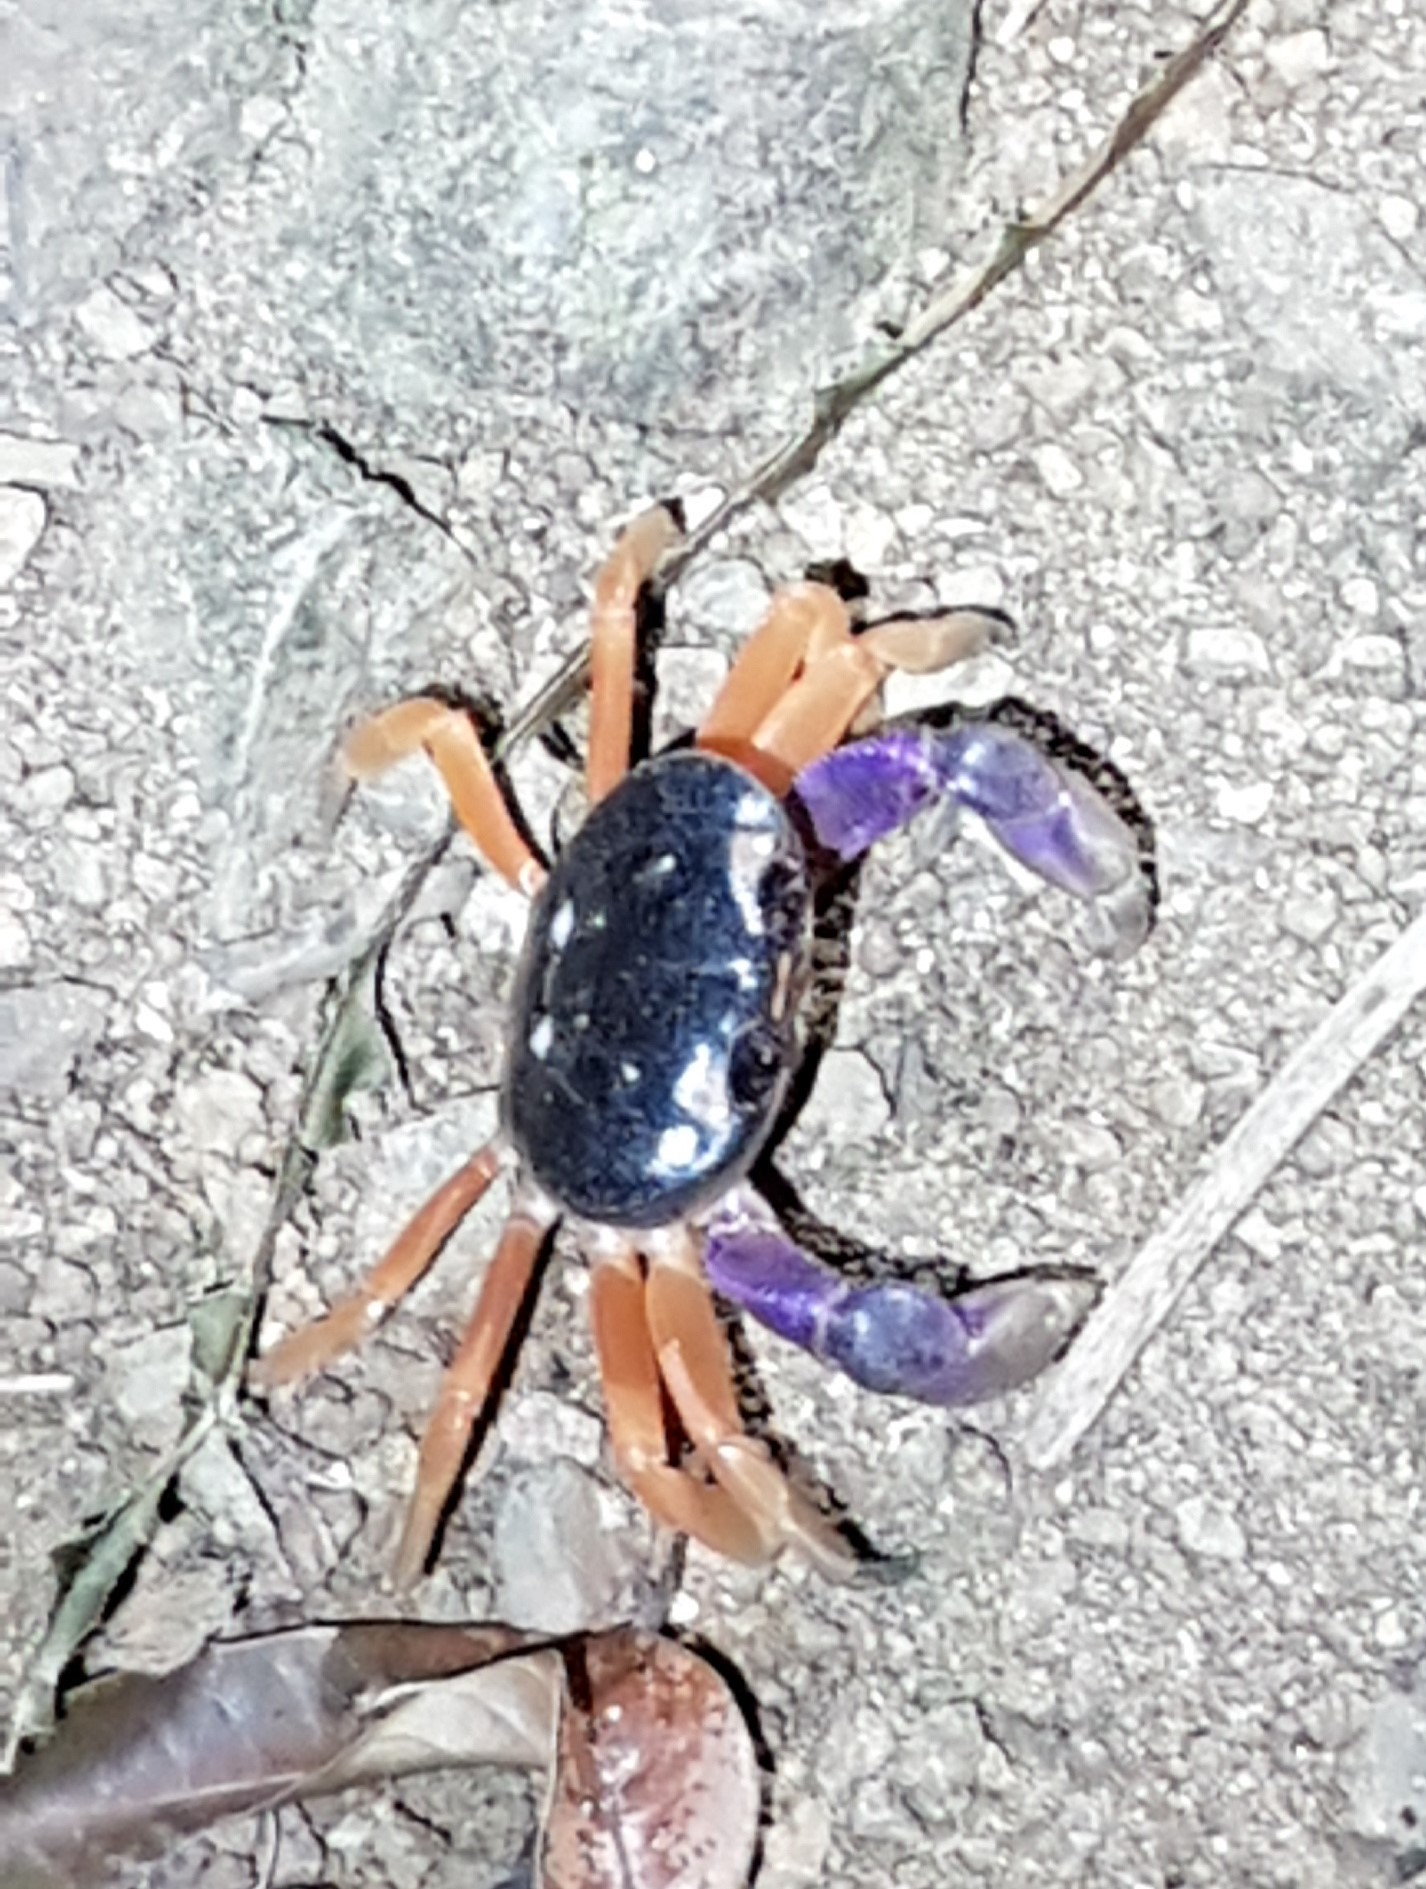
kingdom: Animalia
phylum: Arthropoda
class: Malacostraca
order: Decapoda
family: Gecarcinidae
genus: Gecarcinus
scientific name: Gecarcinus quadratus
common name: Halloween crab
